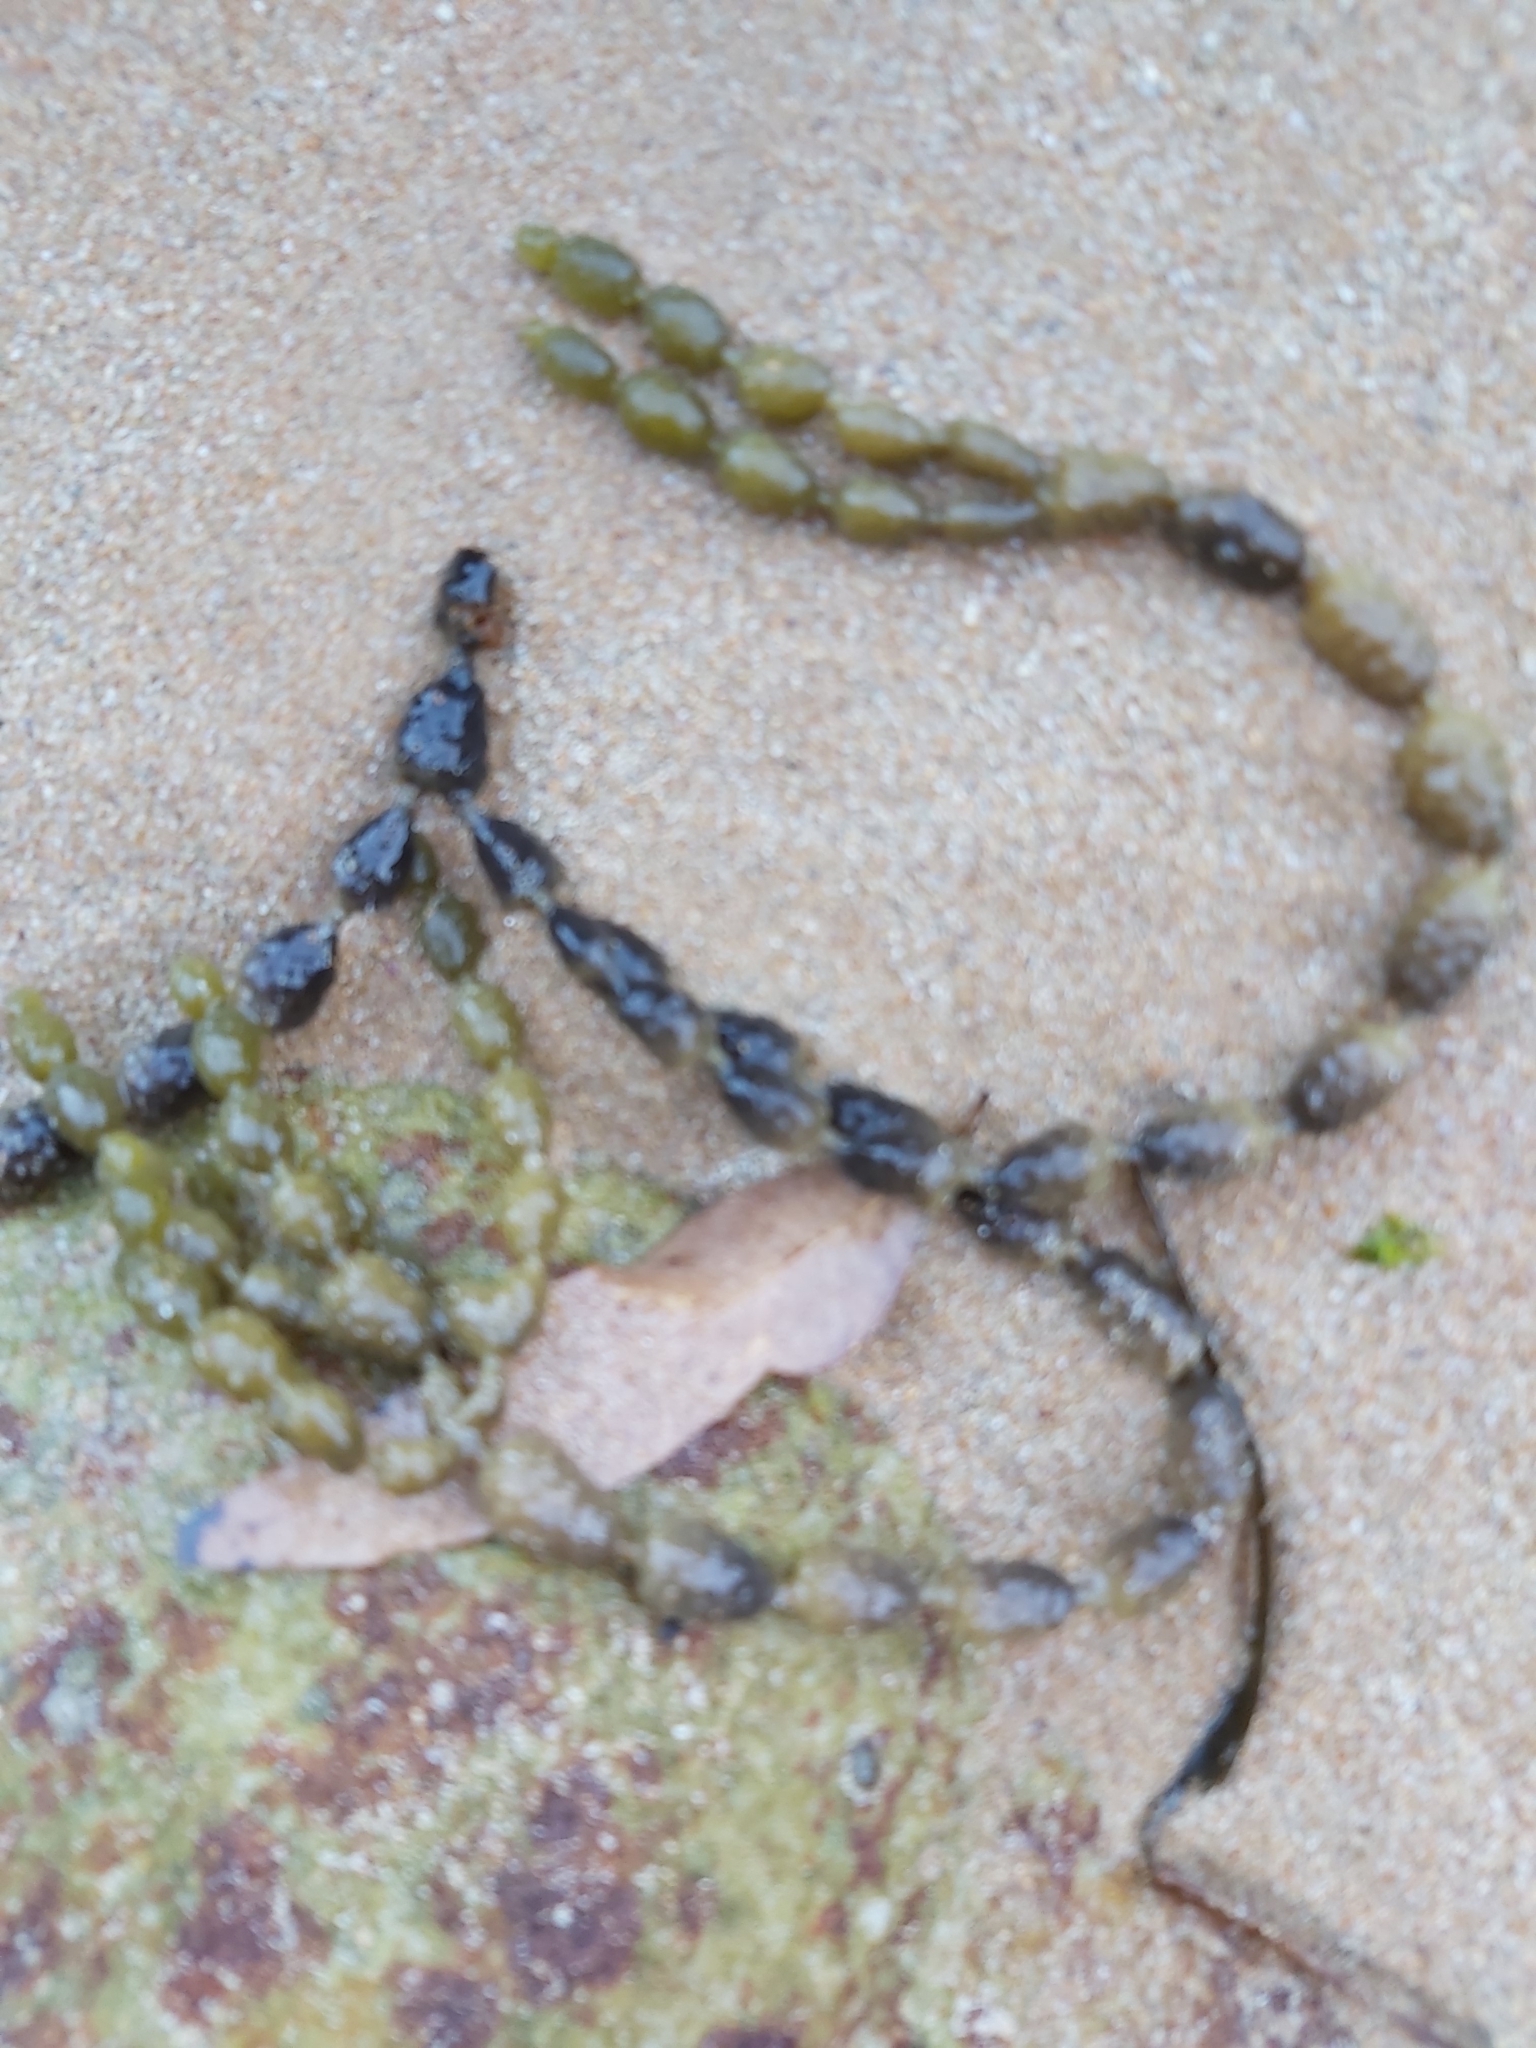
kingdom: Chromista
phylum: Ochrophyta
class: Phaeophyceae
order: Fucales
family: Hormosiraceae
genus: Hormosira
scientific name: Hormosira banksii
